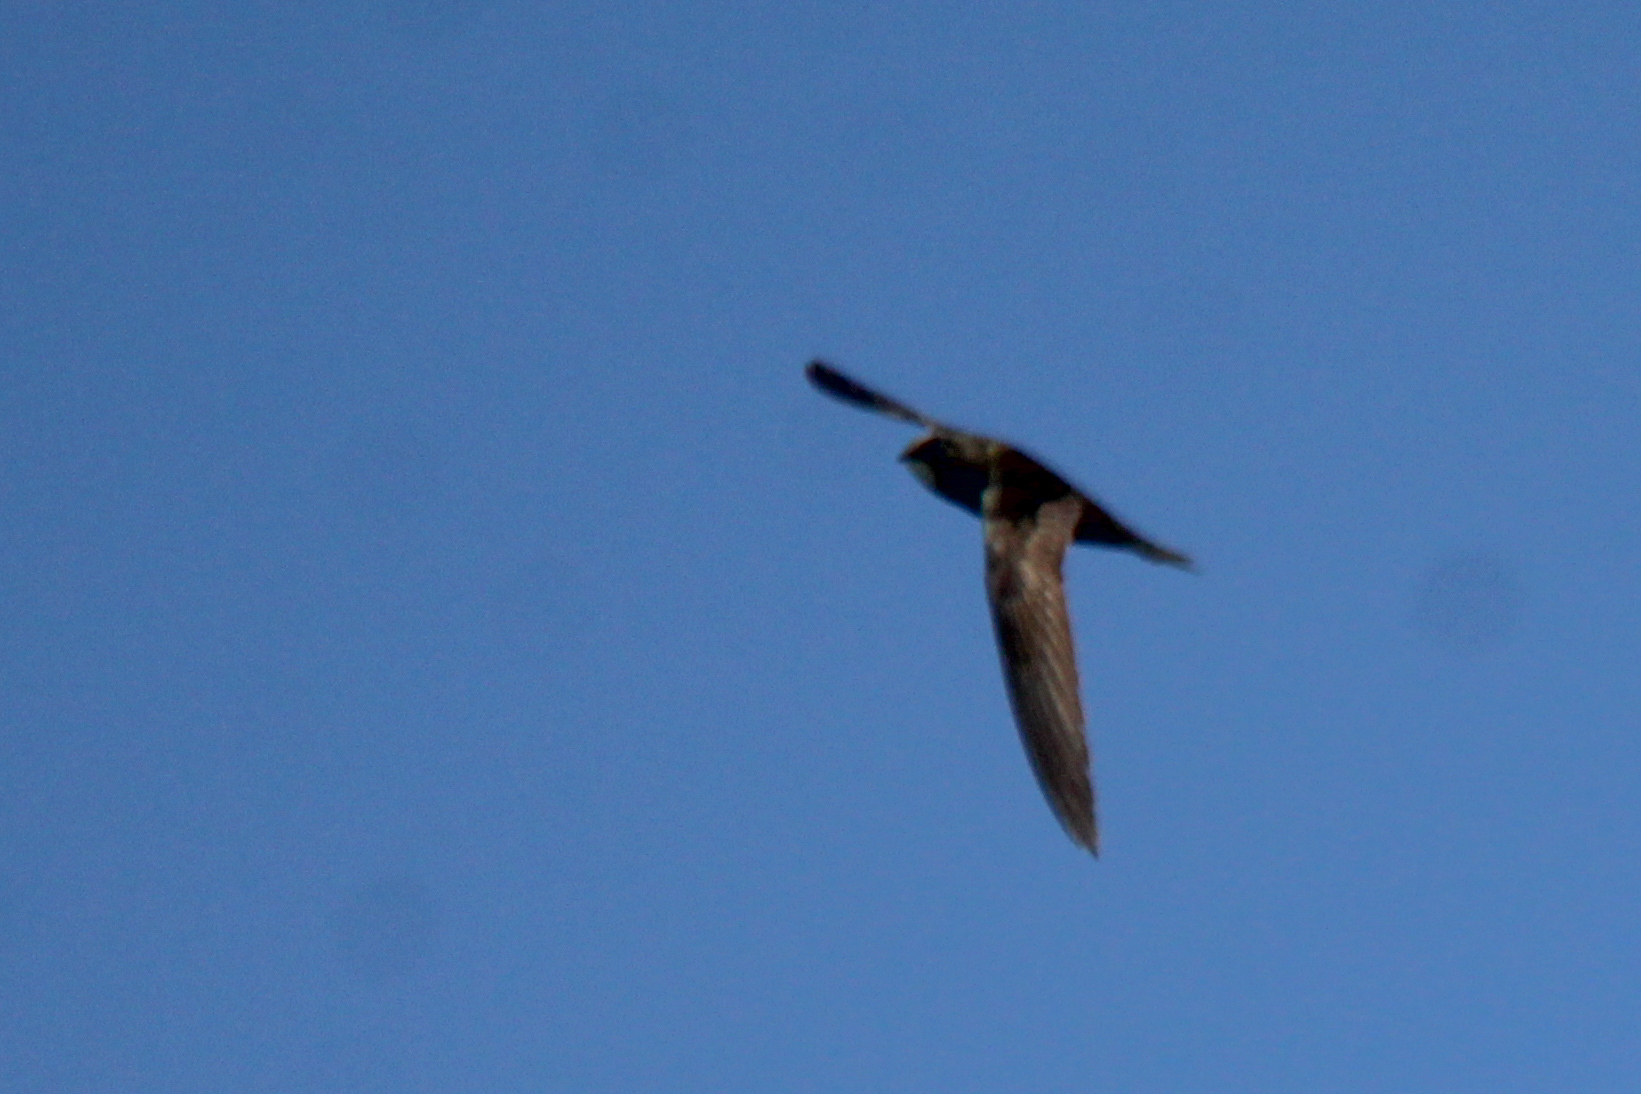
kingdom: Animalia
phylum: Chordata
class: Aves
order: Apodiformes
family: Apodidae
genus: Apus
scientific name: Apus apus
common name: Common swift
